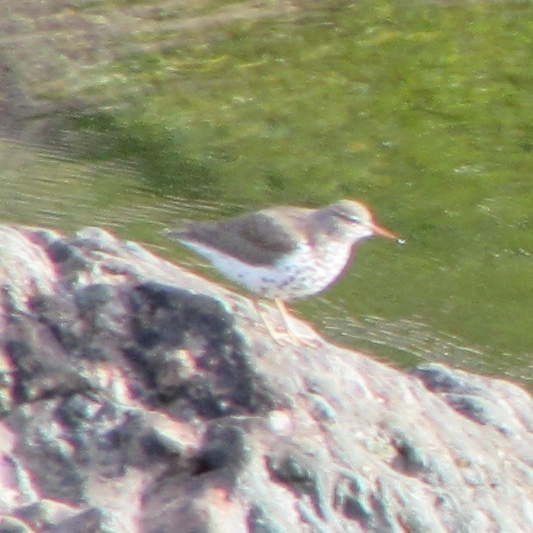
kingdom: Animalia
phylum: Chordata
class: Aves
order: Charadriiformes
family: Scolopacidae
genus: Actitis
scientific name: Actitis macularius
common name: Spotted sandpiper
